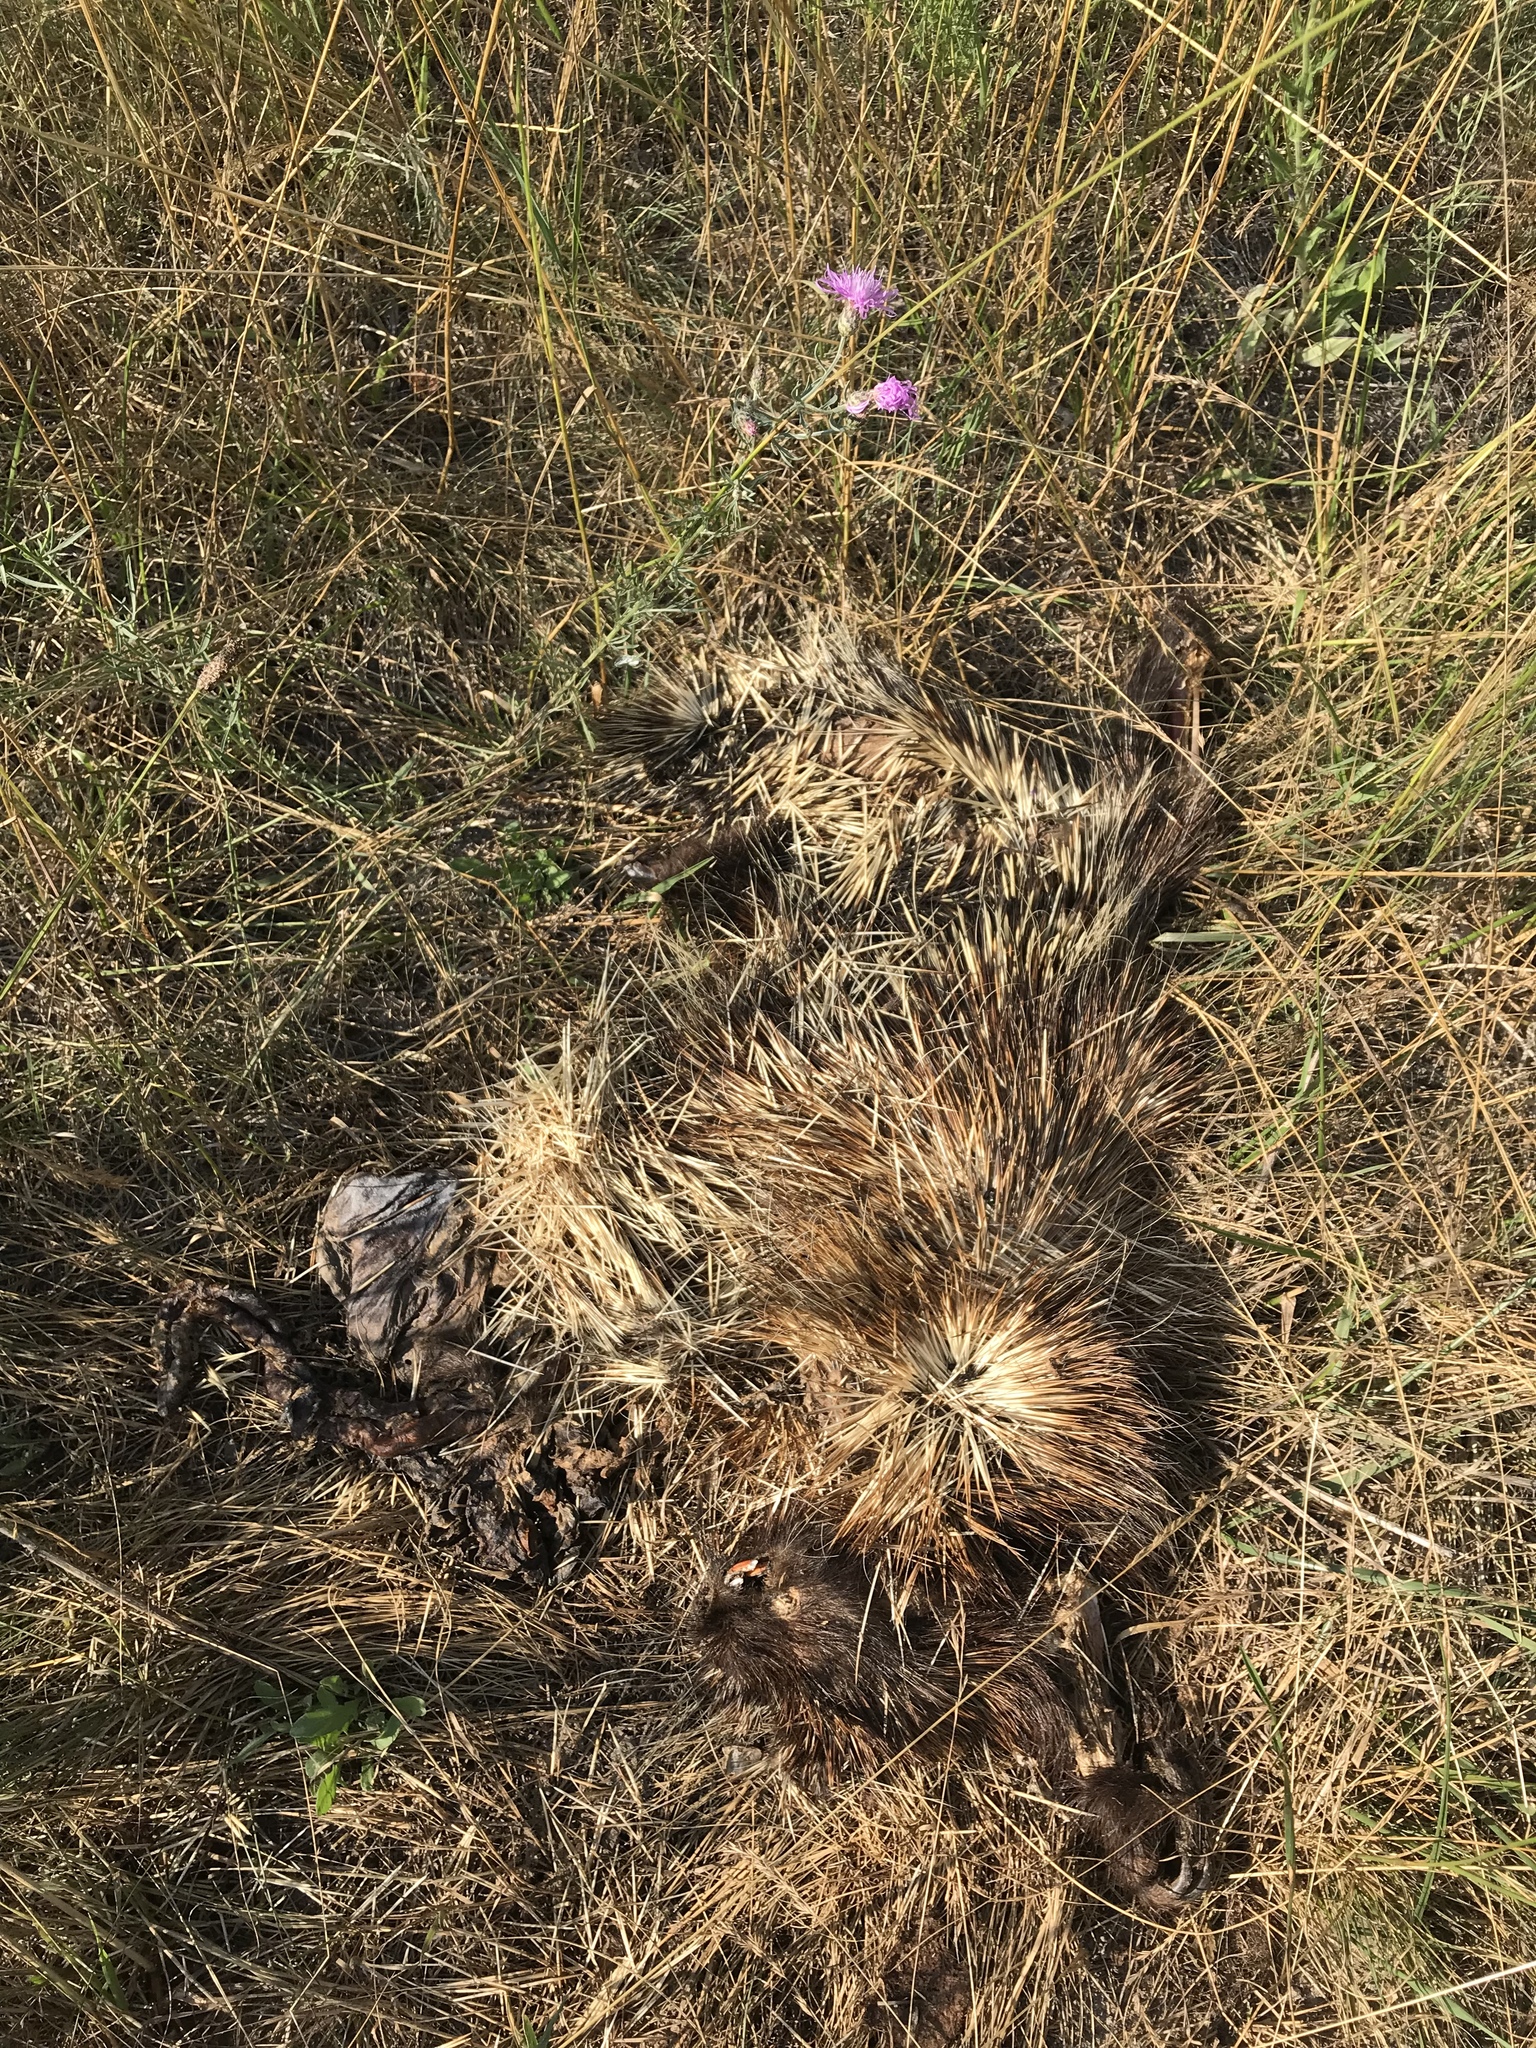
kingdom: Animalia
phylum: Chordata
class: Mammalia
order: Rodentia
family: Erethizontidae
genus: Erethizon
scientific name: Erethizon dorsatus
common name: North american porcupine
